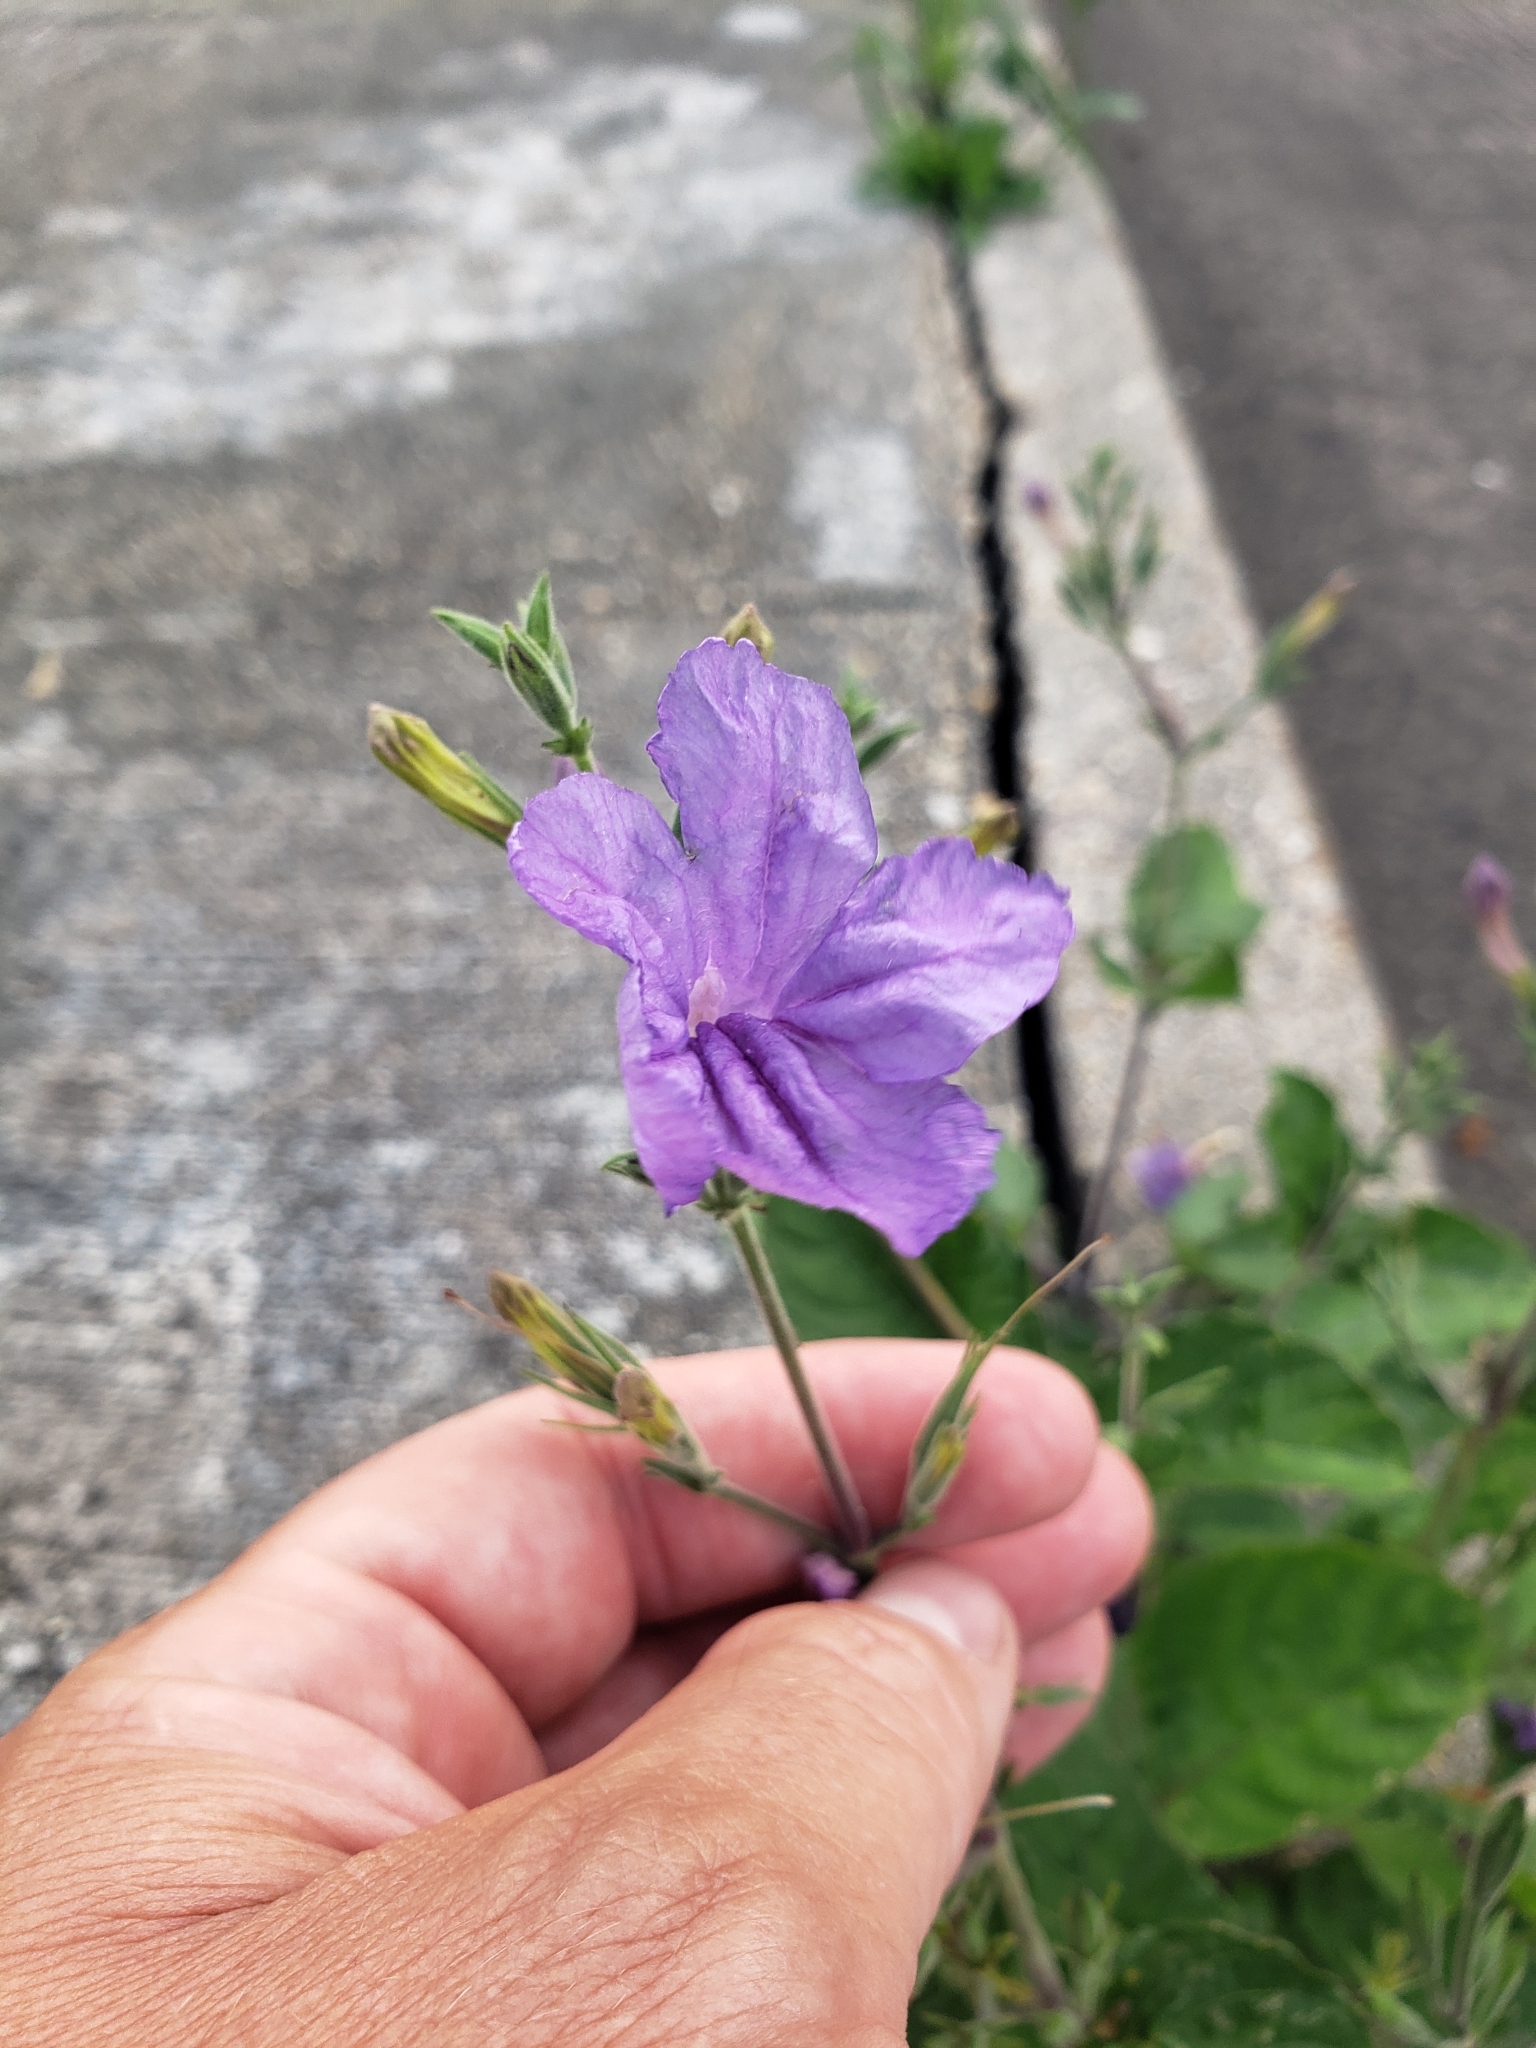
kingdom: Plantae
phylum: Tracheophyta
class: Magnoliopsida
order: Lamiales
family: Acanthaceae
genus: Ruellia
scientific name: Ruellia ciliatiflora
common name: Hairyflower wild petunia
